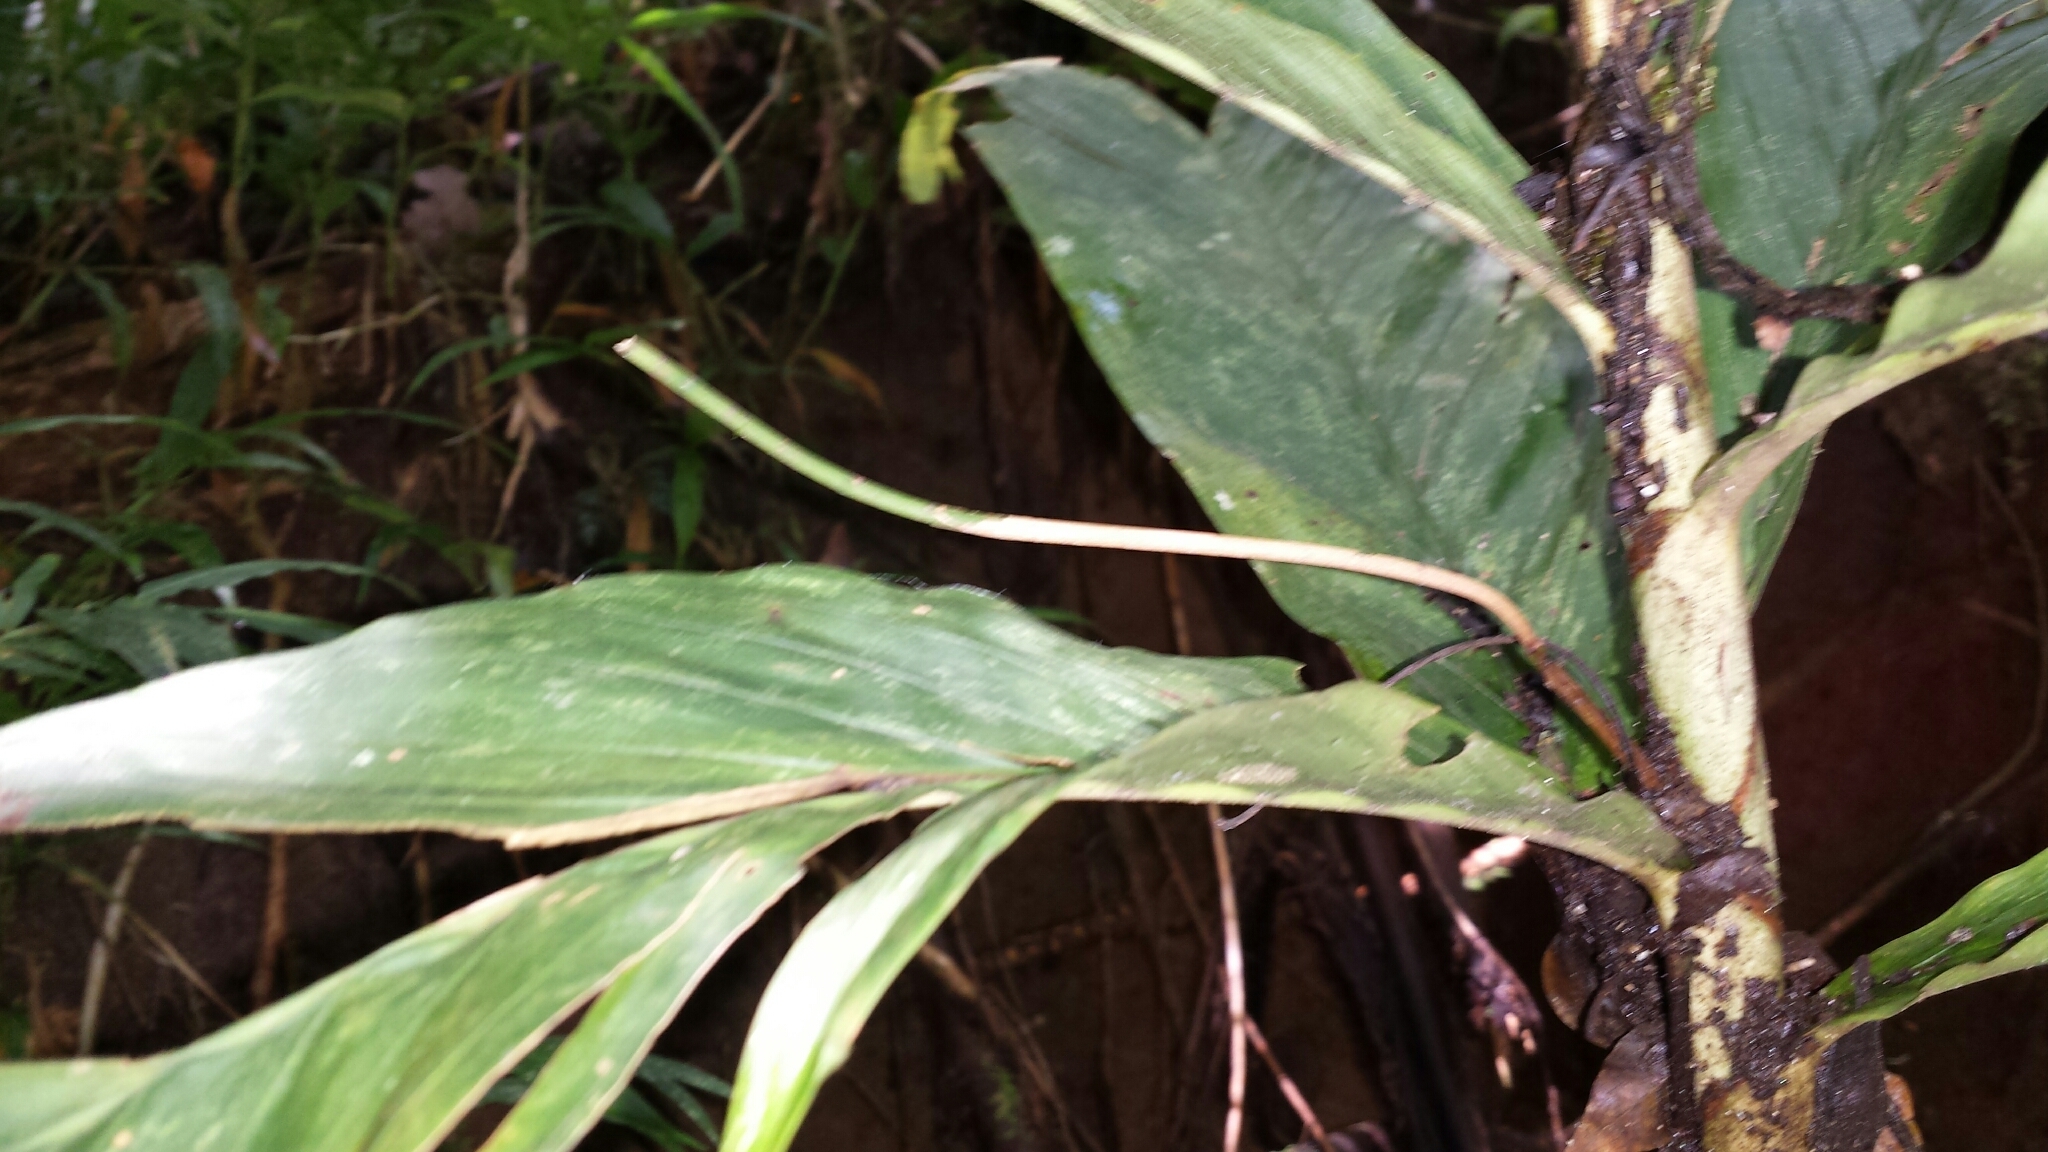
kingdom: Plantae
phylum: Tracheophyta
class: Liliopsida
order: Arecales
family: Arecaceae
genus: Dypsis
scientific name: Dypsis catatiana
